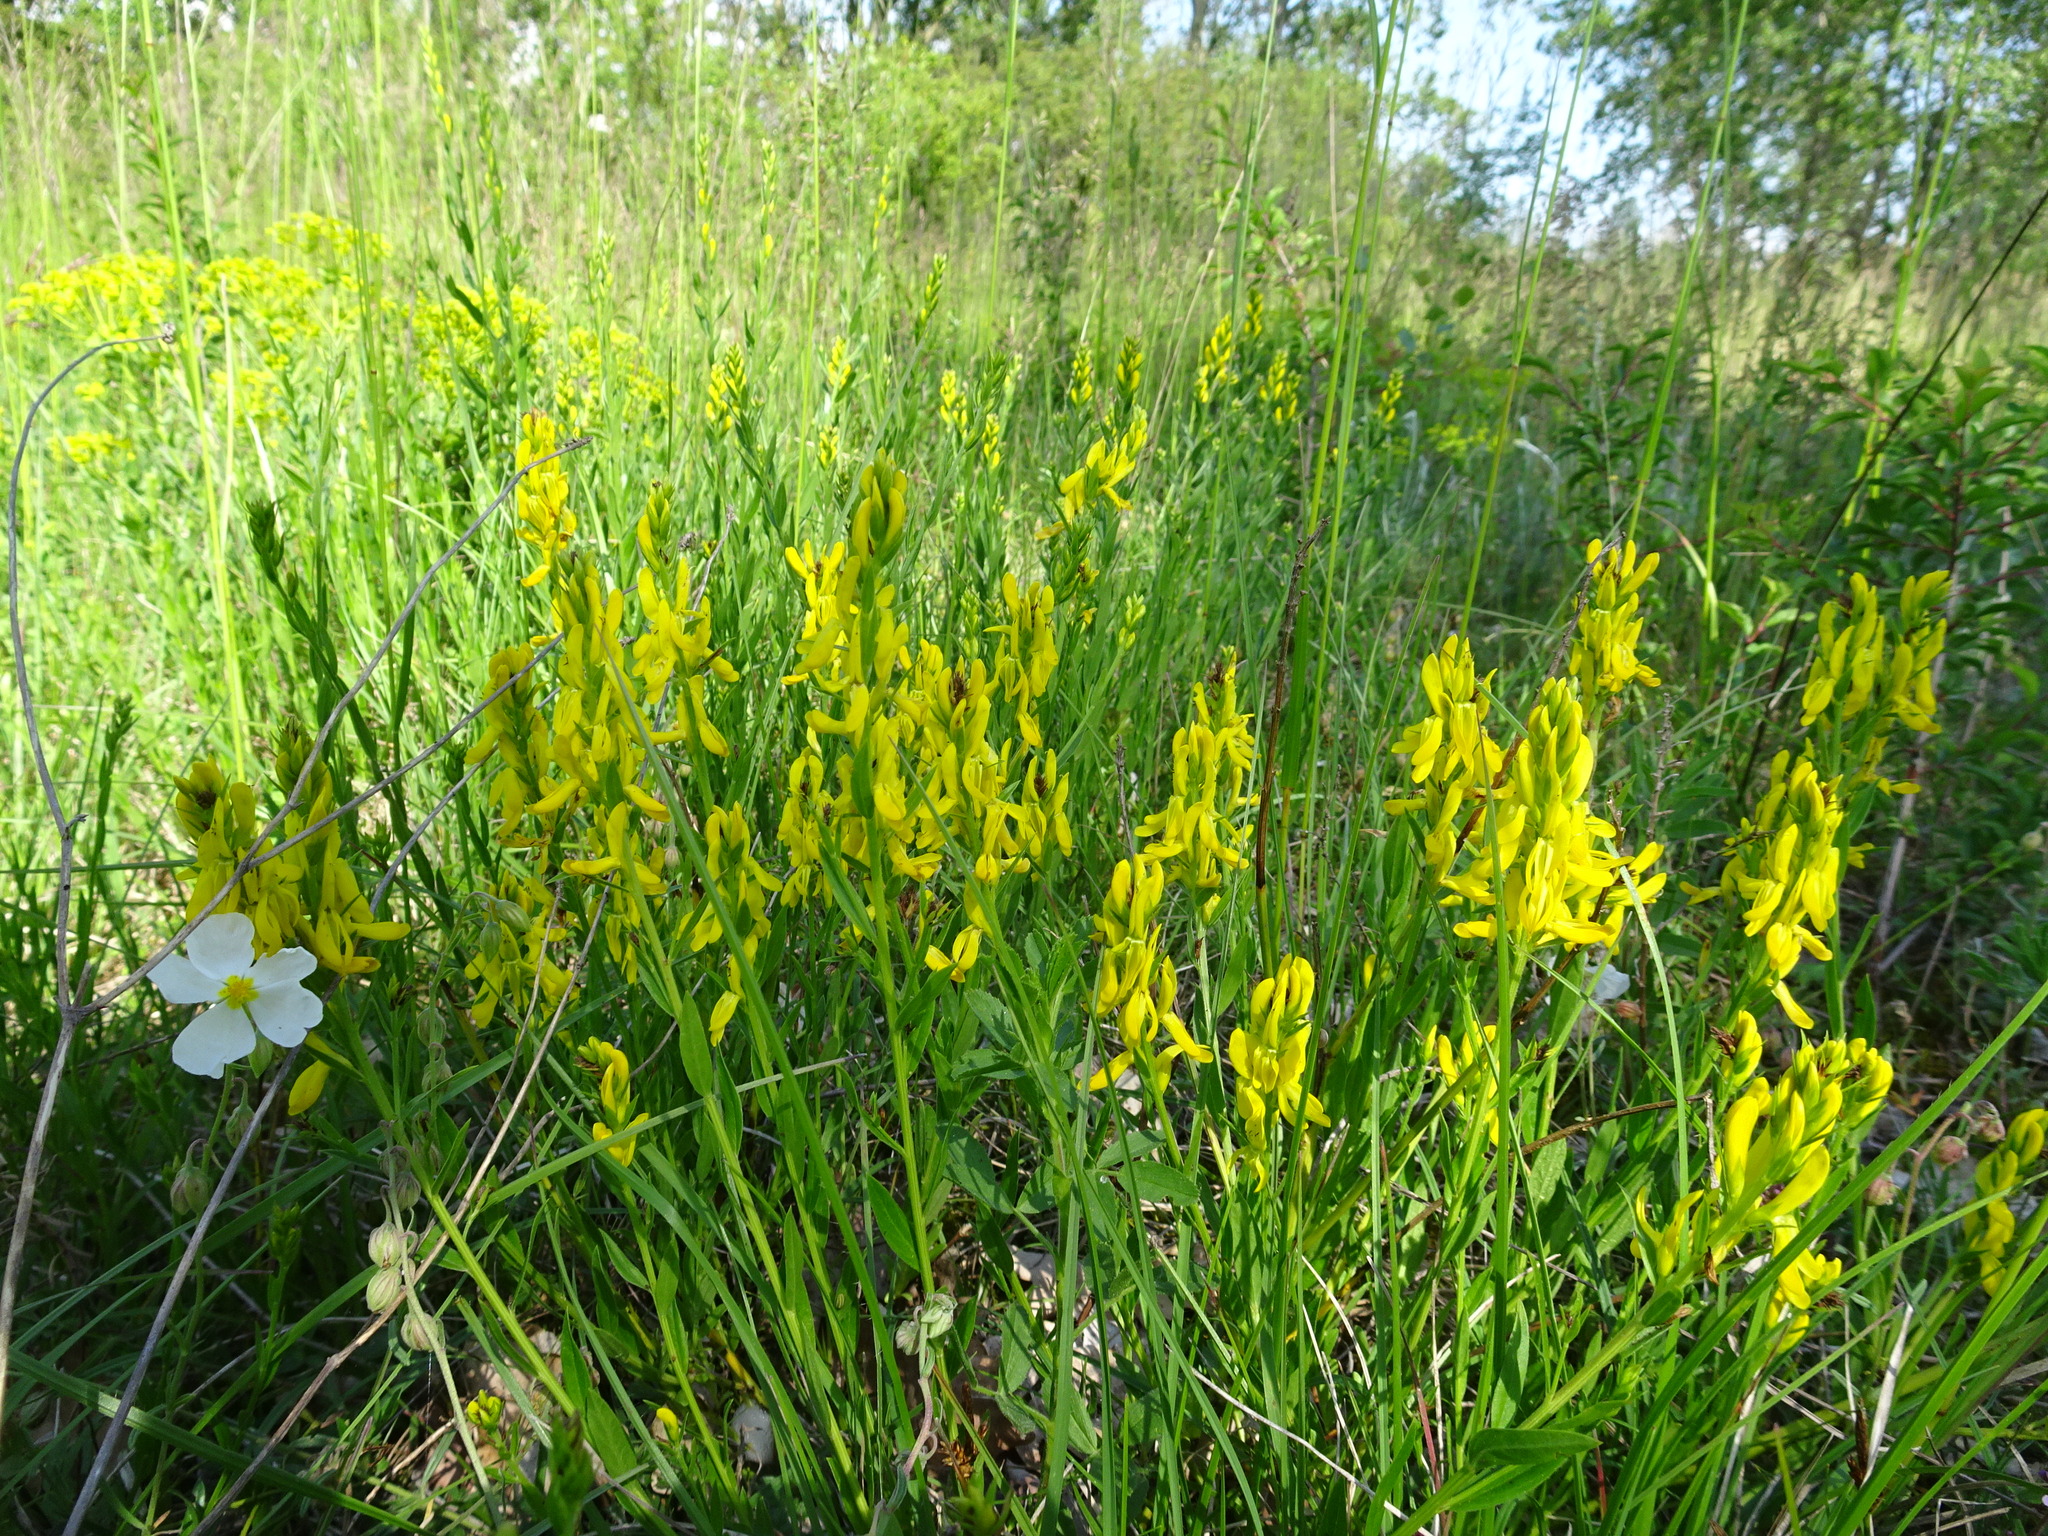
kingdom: Plantae
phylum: Tracheophyta
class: Magnoliopsida
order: Fabales
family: Fabaceae
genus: Genista
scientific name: Genista tinctoria
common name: Dyer's greenweed
